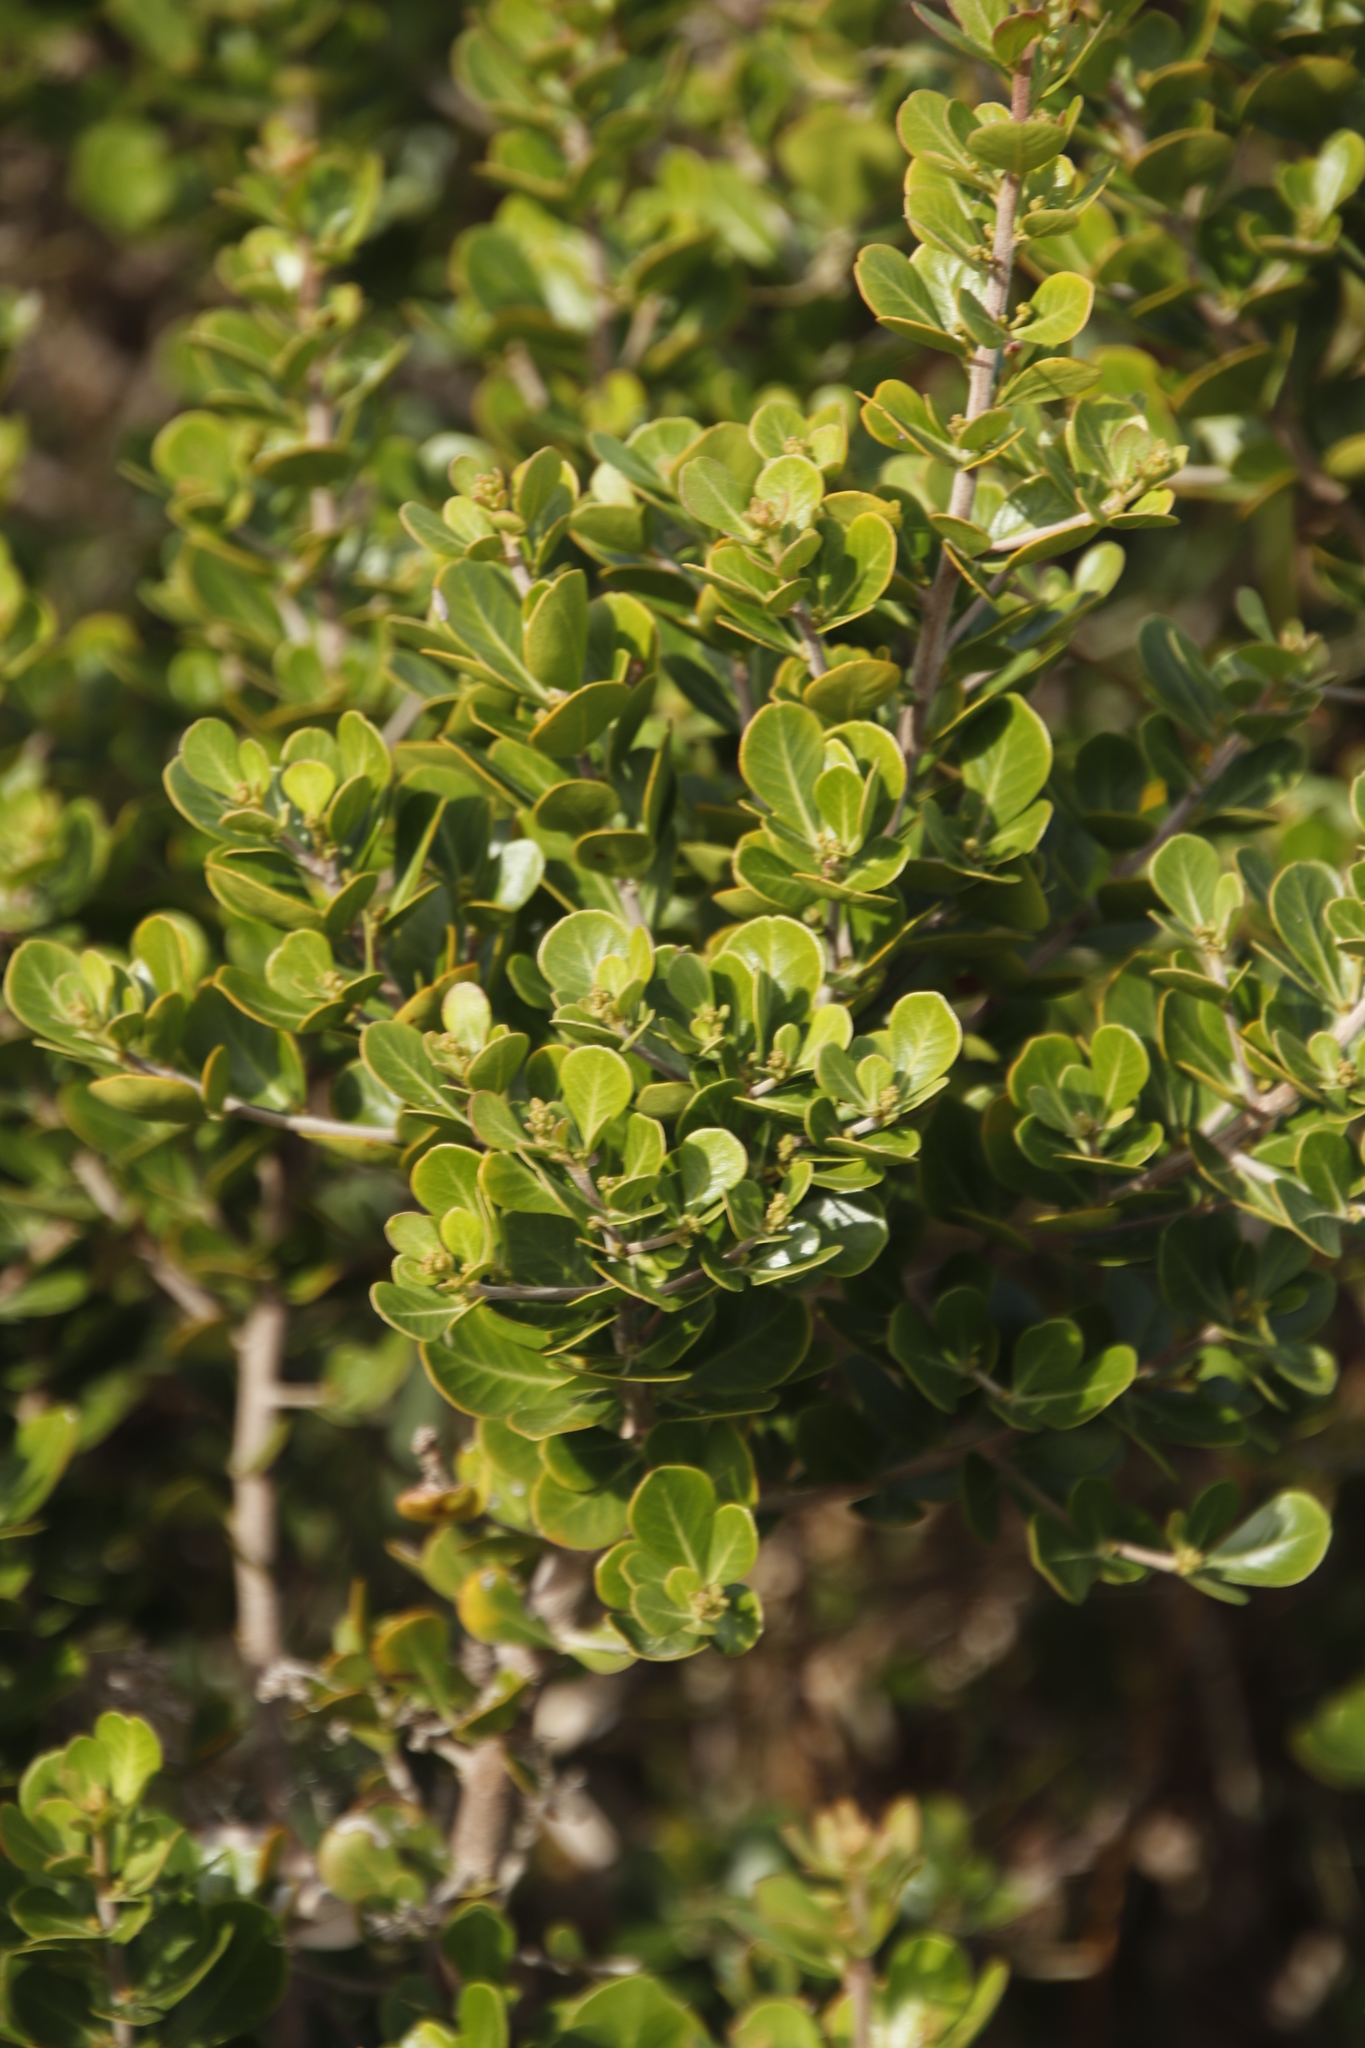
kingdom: Plantae
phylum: Tracheophyta
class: Magnoliopsida
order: Sapindales
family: Anacardiaceae
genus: Searsia
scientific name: Searsia lucida
